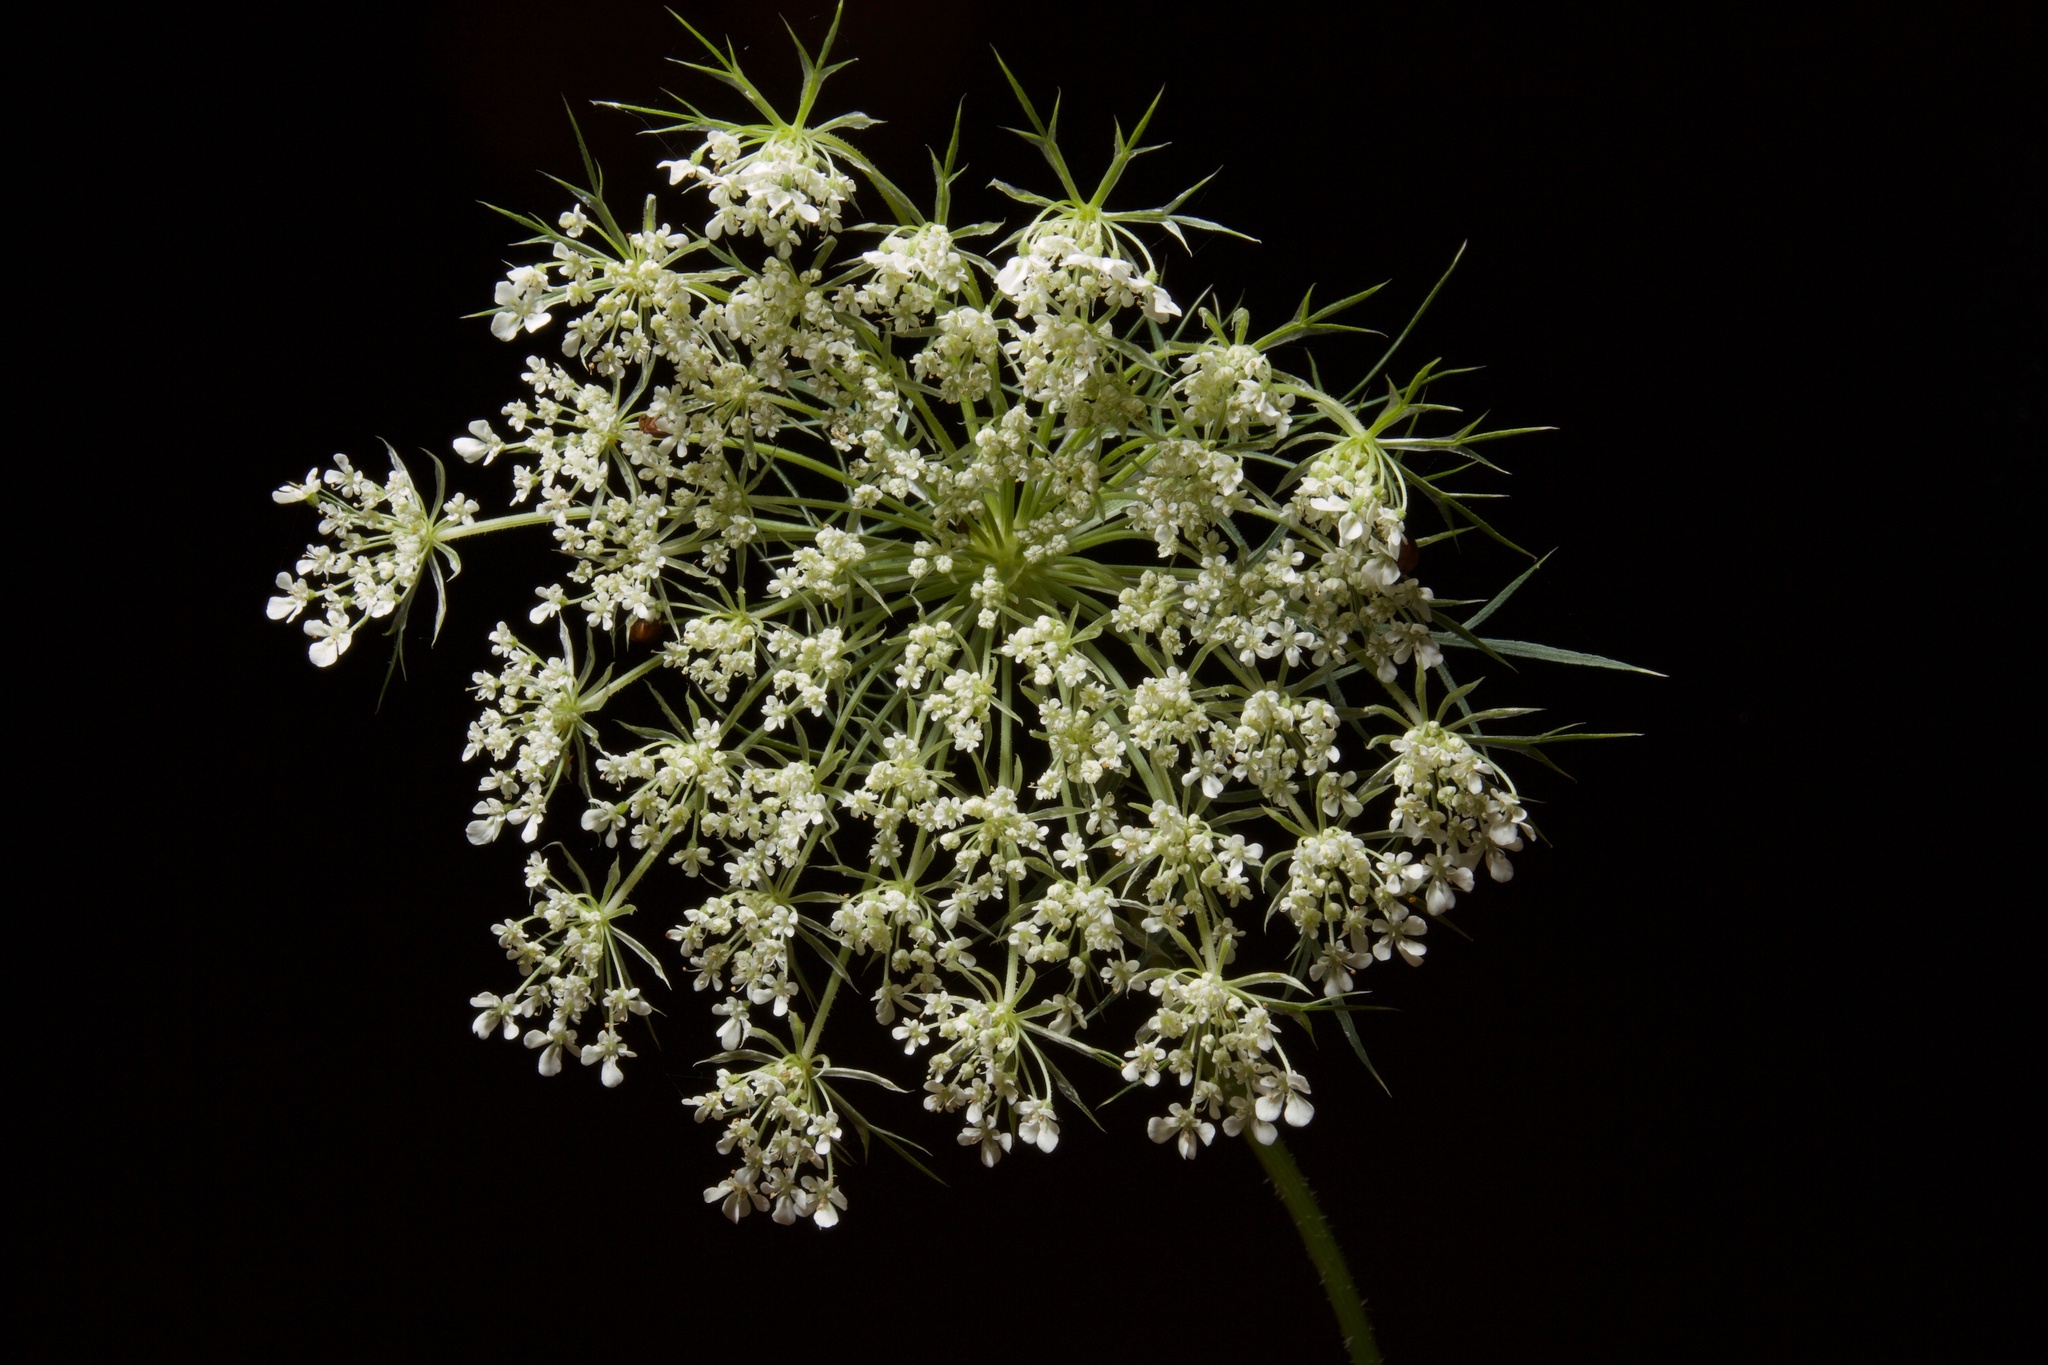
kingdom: Plantae
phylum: Tracheophyta
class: Magnoliopsida
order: Apiales
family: Apiaceae
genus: Daucus
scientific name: Daucus carota
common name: Wild carrot
